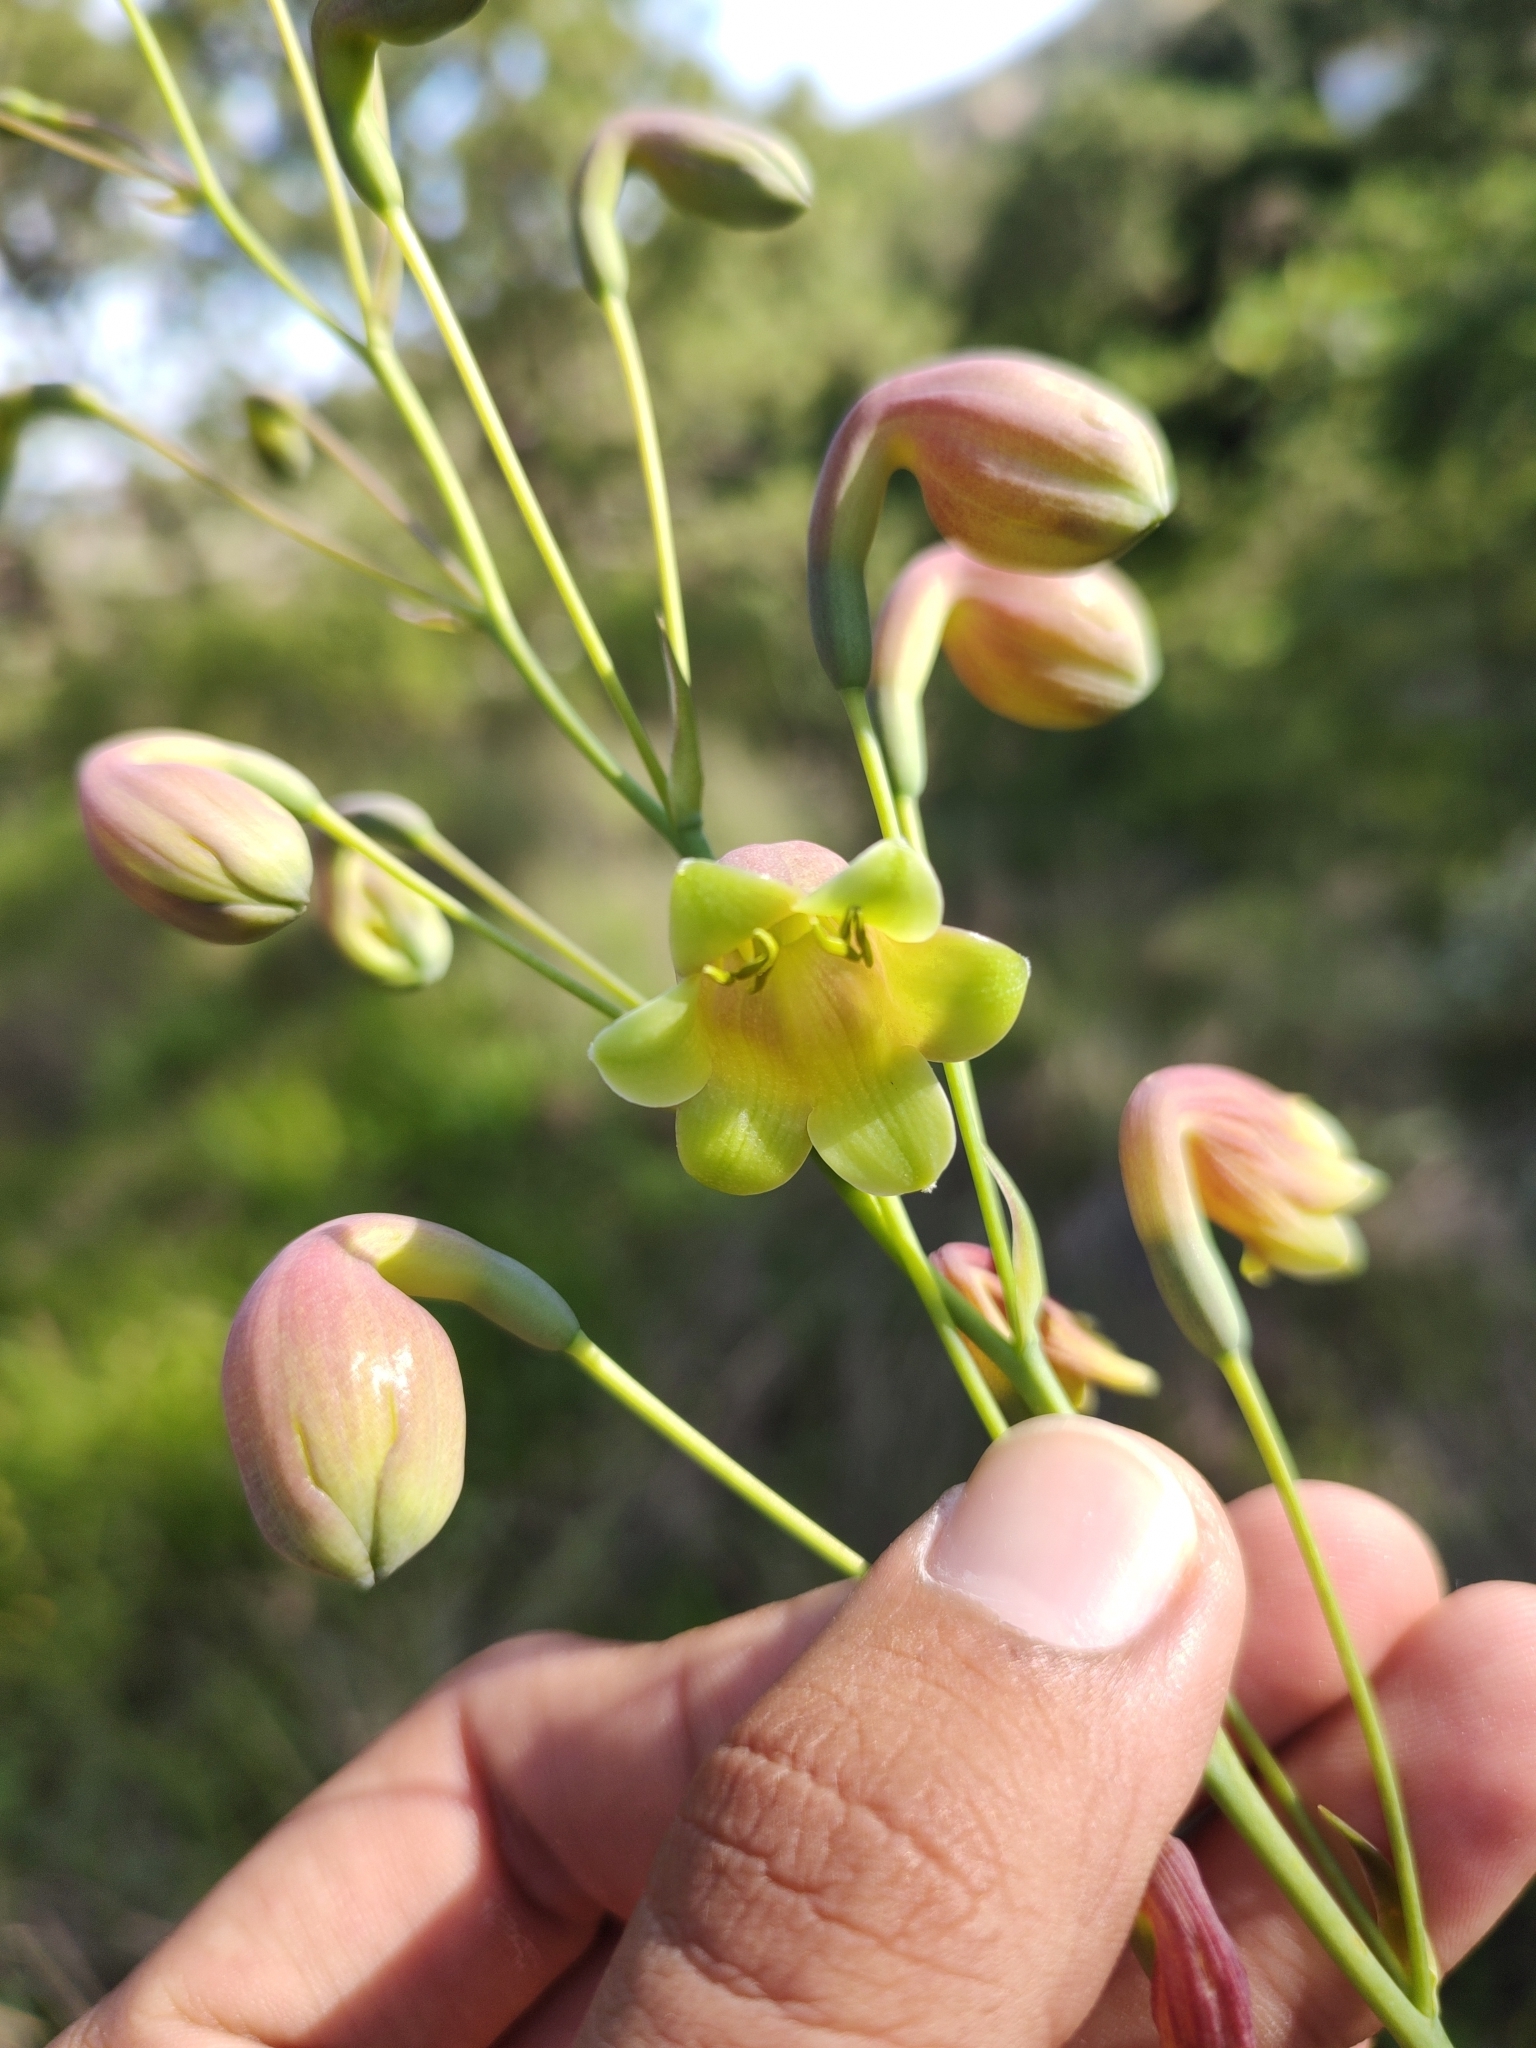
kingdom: Plantae
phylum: Tracheophyta
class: Liliopsida
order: Asparagales
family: Asparagaceae
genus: Agave
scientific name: Agave bulliana
